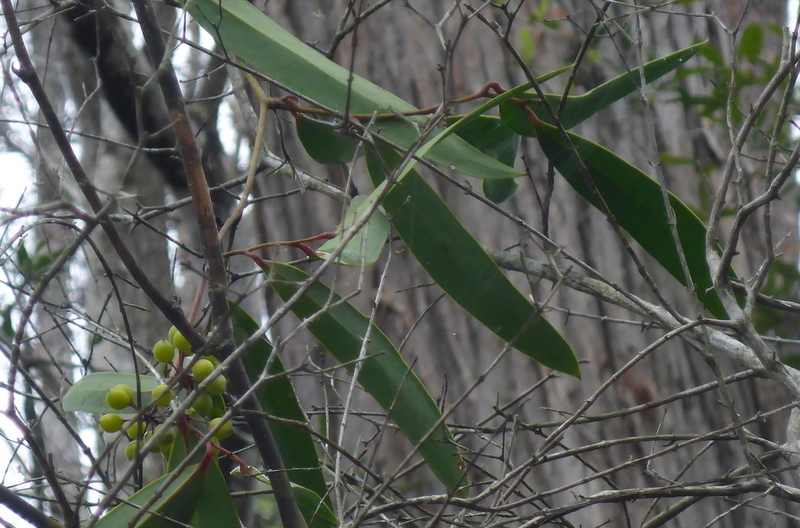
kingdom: Plantae
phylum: Tracheophyta
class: Liliopsida
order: Liliales
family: Smilacaceae
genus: Smilax
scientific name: Smilax laurifolia
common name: Bamboovine
